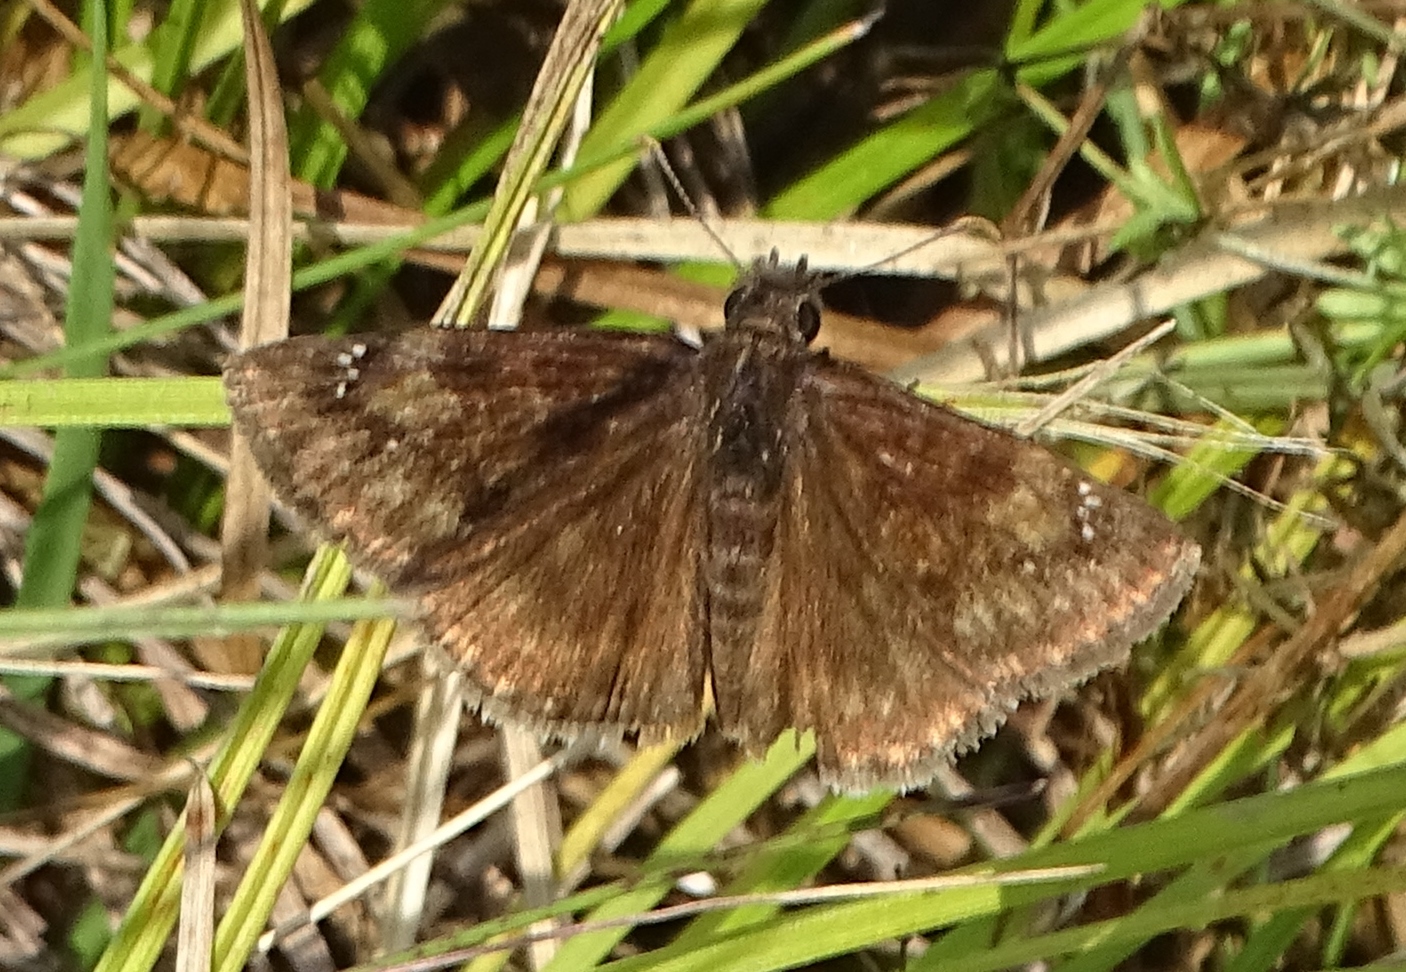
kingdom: Animalia
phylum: Arthropoda
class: Insecta
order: Lepidoptera
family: Hesperiidae
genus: Erynnis
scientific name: Erynnis baptisiae
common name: Wild indigo duskywing
